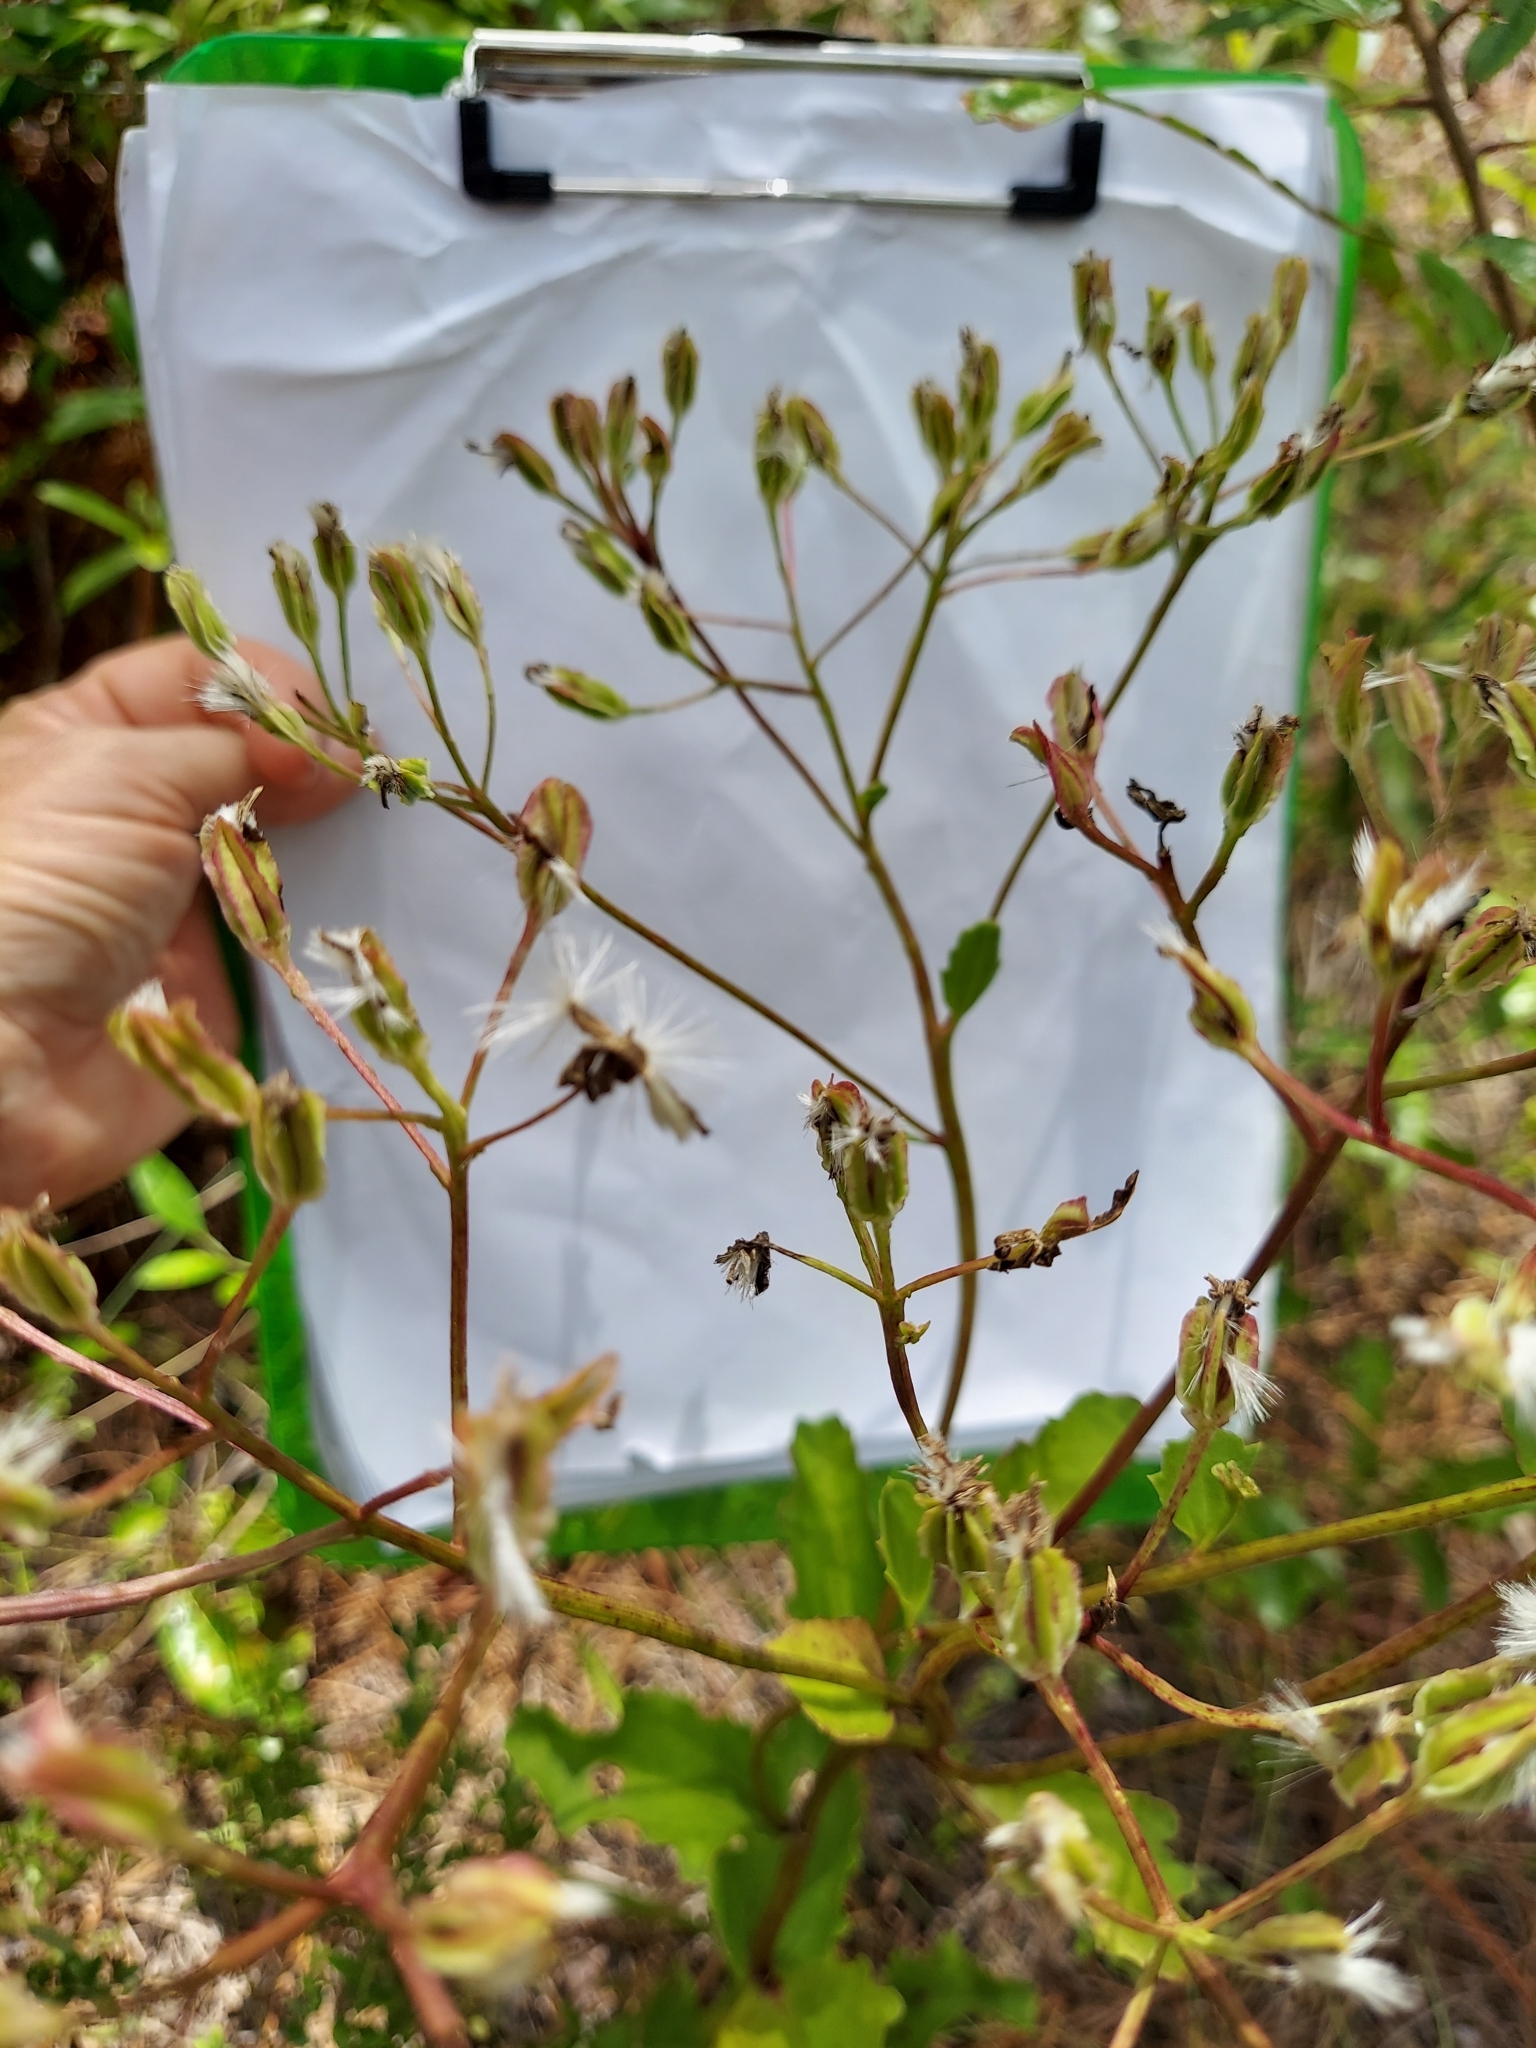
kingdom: Plantae
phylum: Tracheophyta
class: Magnoliopsida
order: Asterales
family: Asteraceae
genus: Arnoglossum
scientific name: Arnoglossum floridanum
